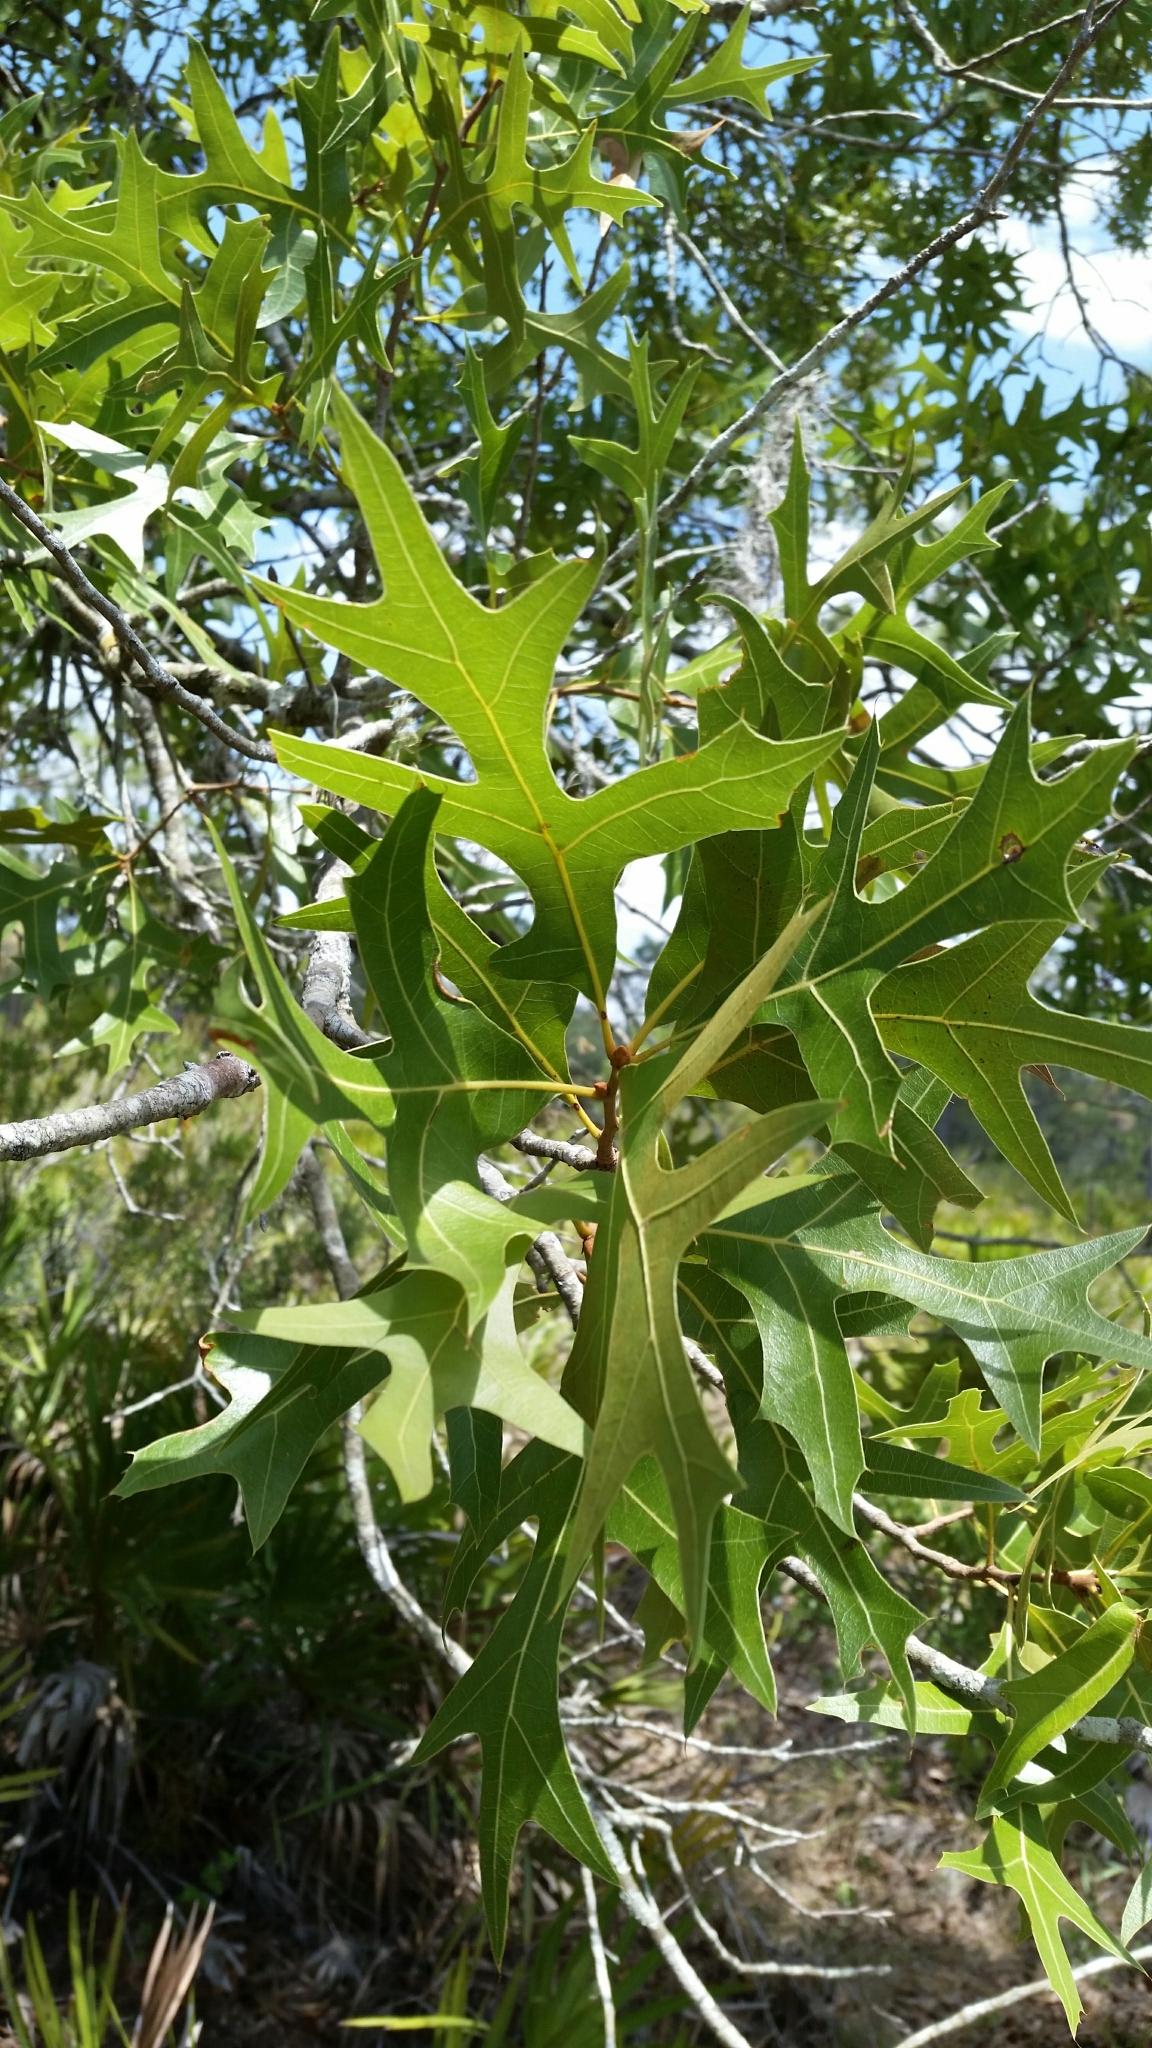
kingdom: Plantae
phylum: Tracheophyta
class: Magnoliopsida
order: Fagales
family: Fagaceae
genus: Quercus
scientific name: Quercus laevis
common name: Turkey oak
